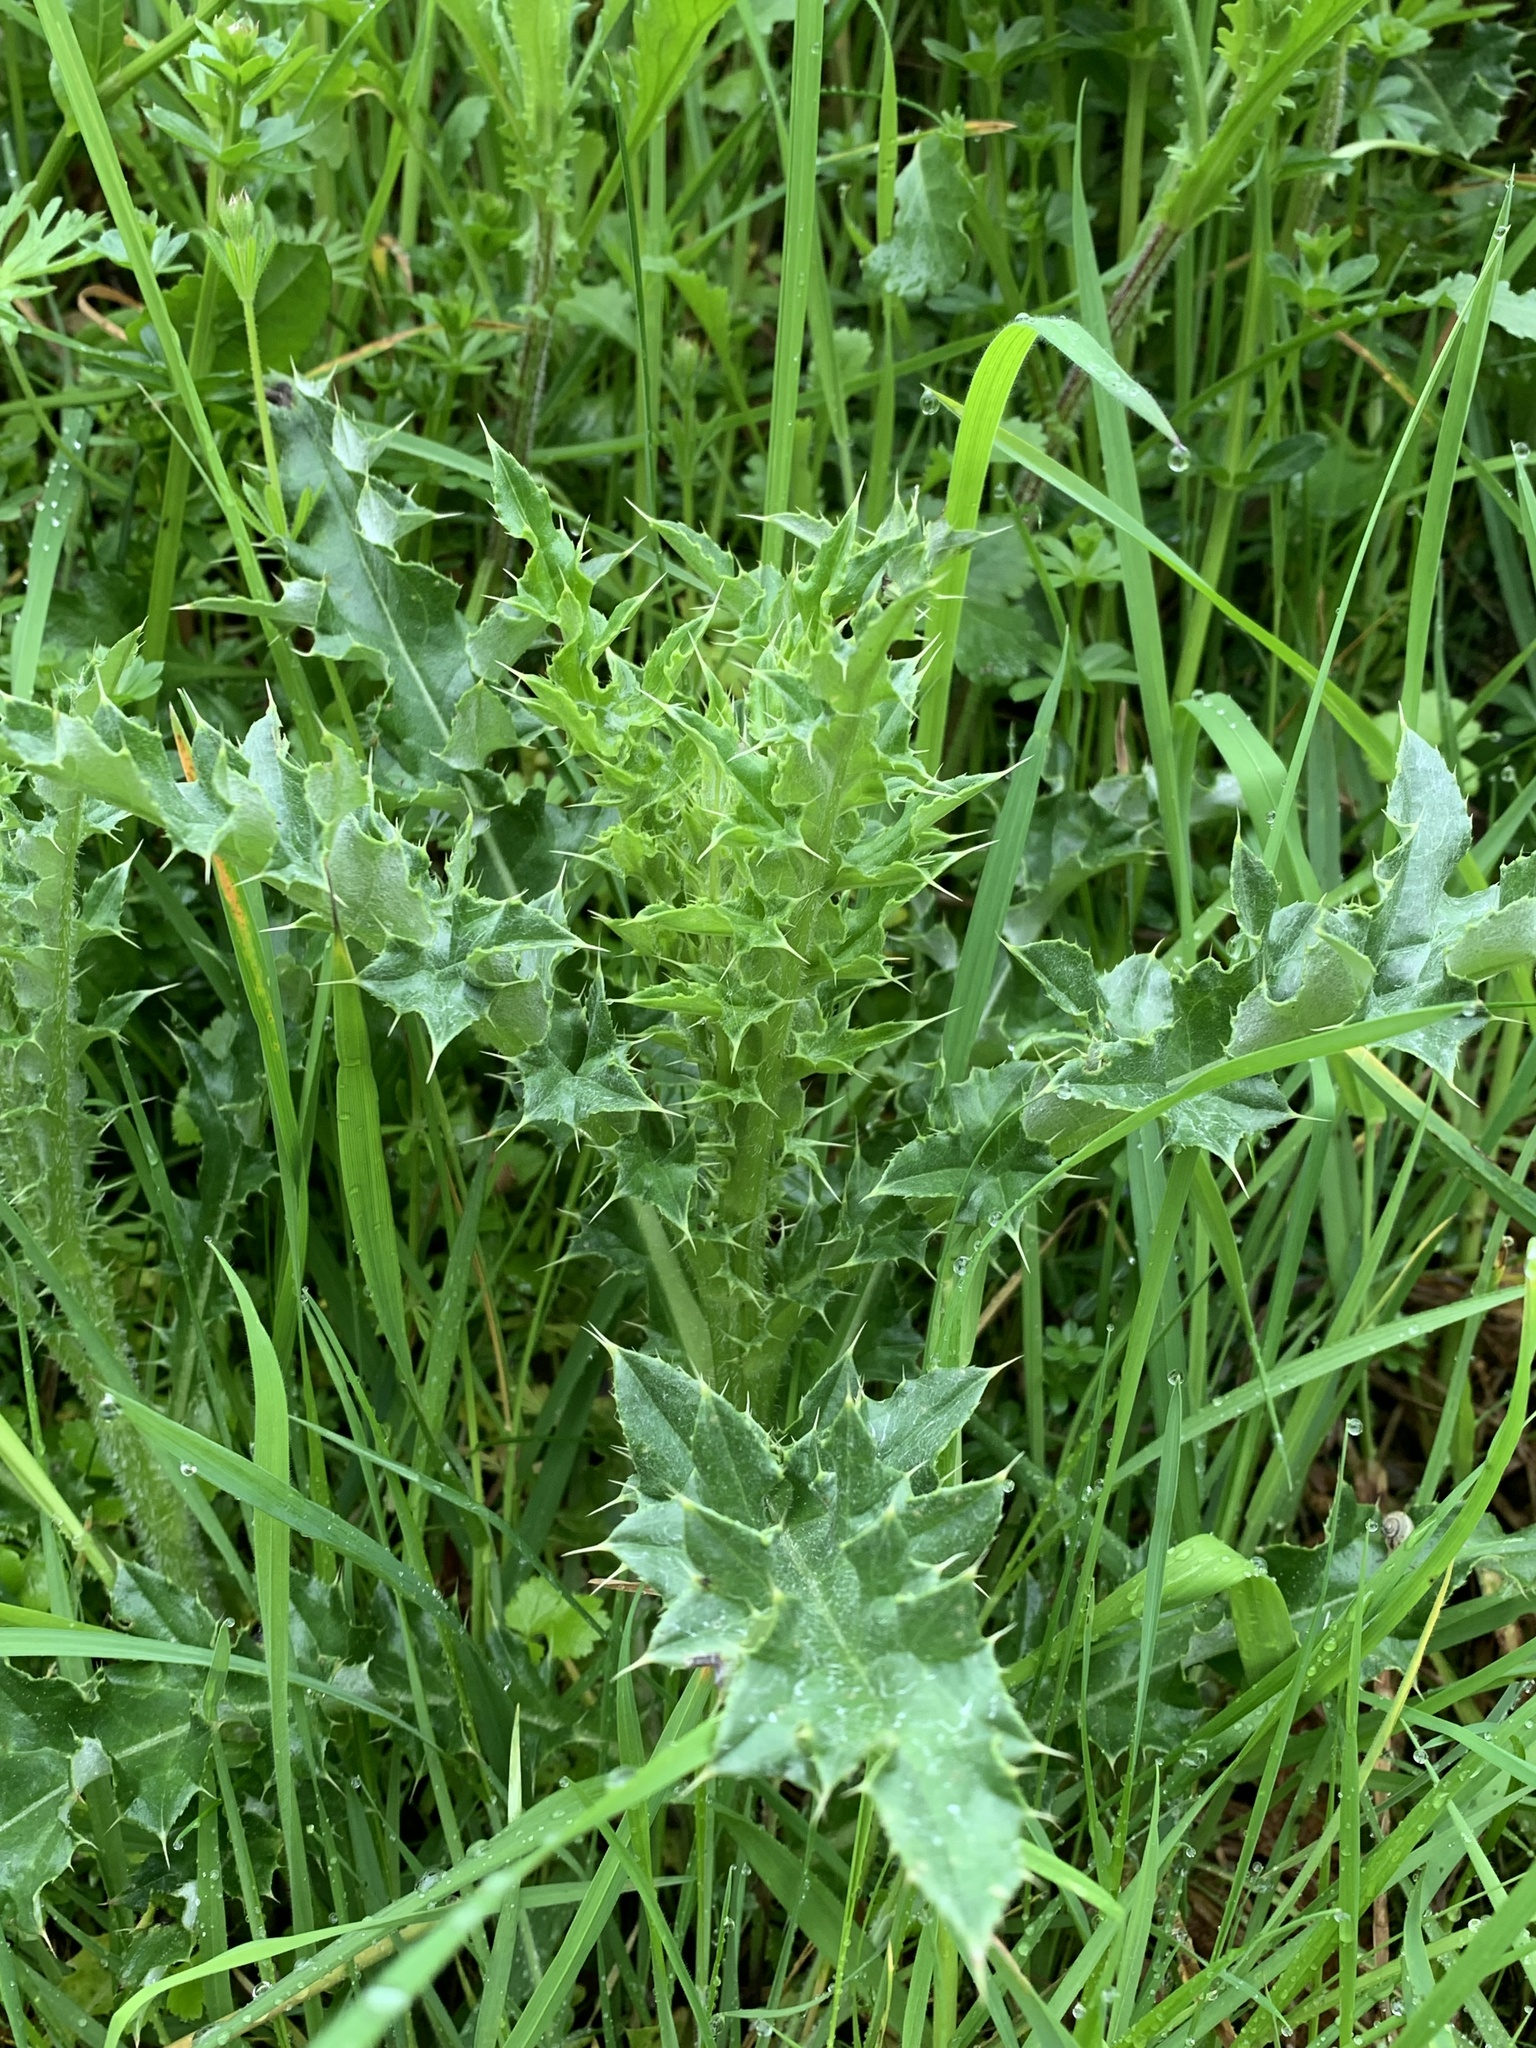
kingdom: Plantae
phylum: Tracheophyta
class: Magnoliopsida
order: Asterales
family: Asteraceae
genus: Cirsium
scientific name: Cirsium arvense
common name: Creeping thistle
